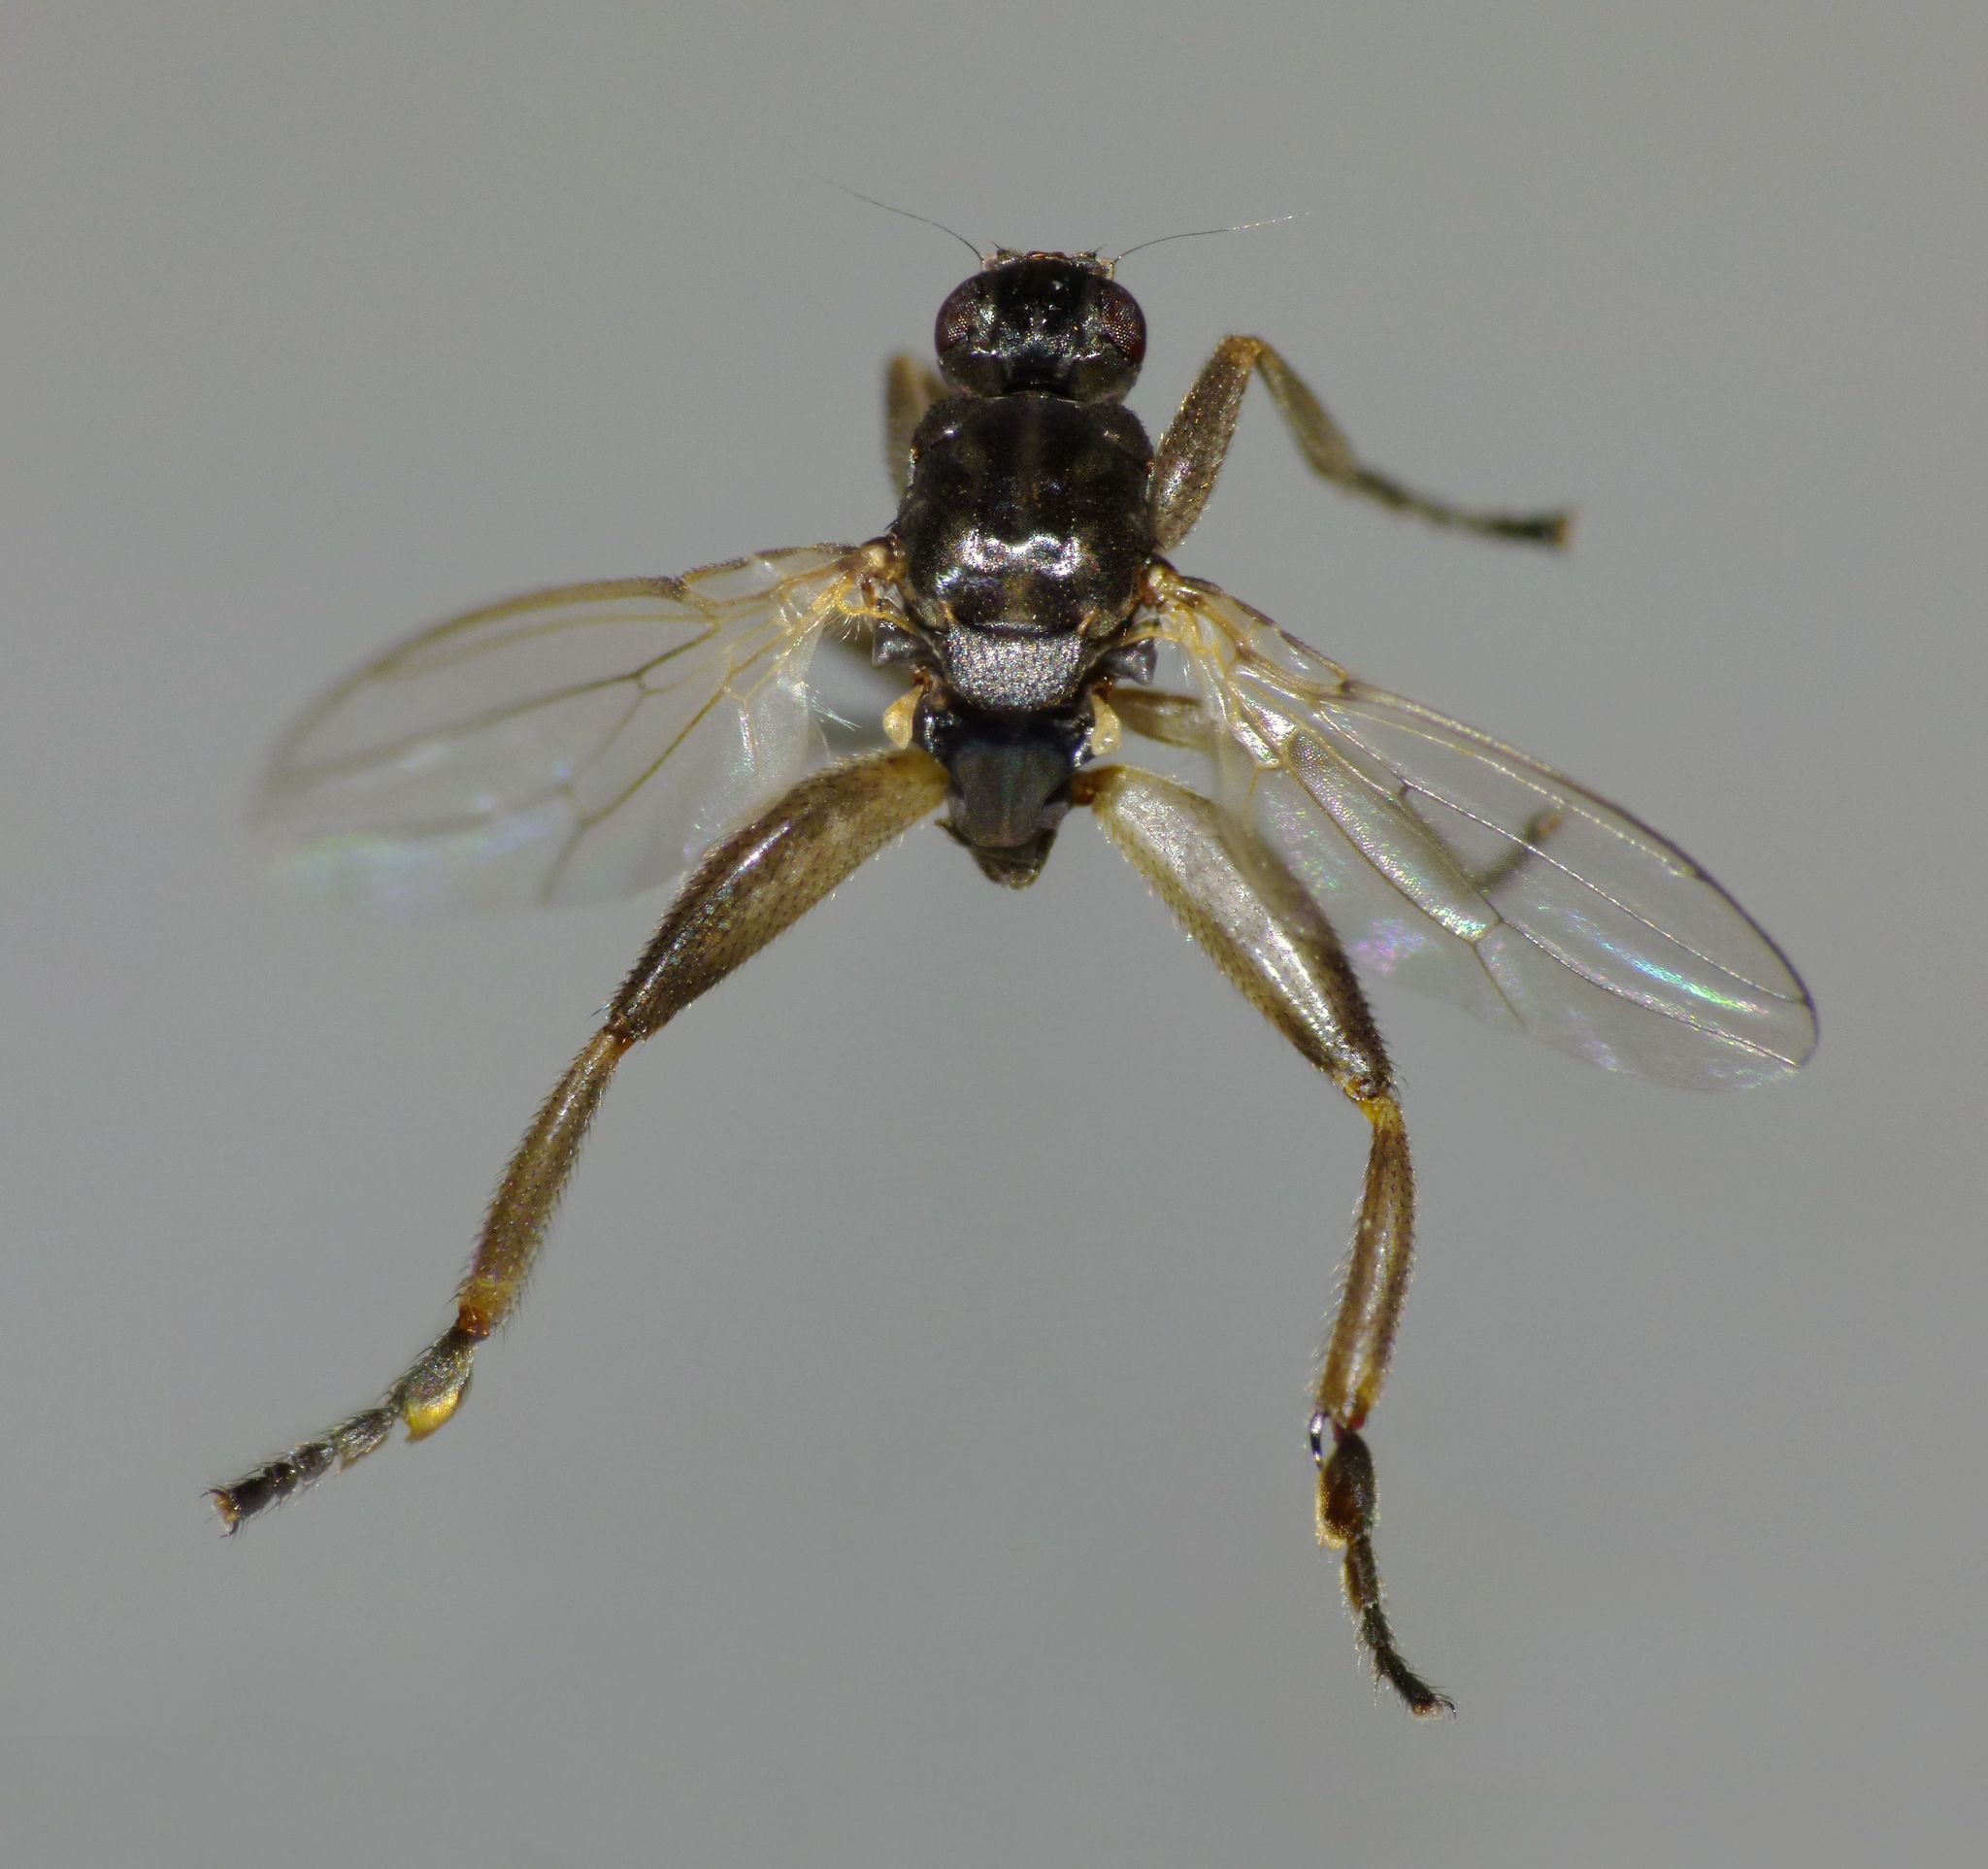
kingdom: Animalia
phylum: Arthropoda
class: Insecta
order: Diptera
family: Sphaeroceridae
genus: Sphaerocera
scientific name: Sphaerocera curvipes
